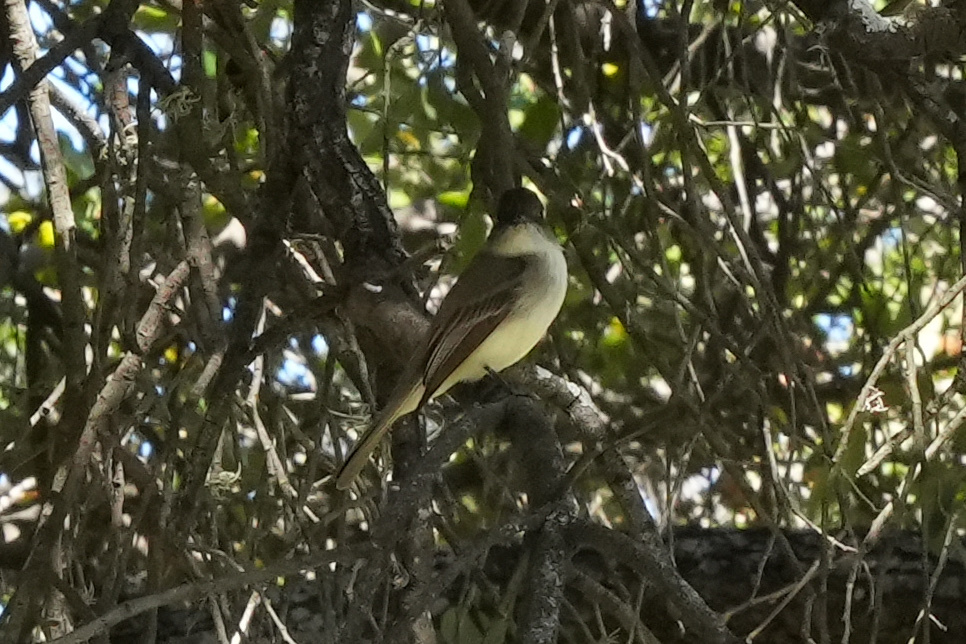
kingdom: Animalia
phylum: Chordata
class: Aves
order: Passeriformes
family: Tyrannidae
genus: Sayornis
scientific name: Sayornis phoebe
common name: Eastern phoebe
